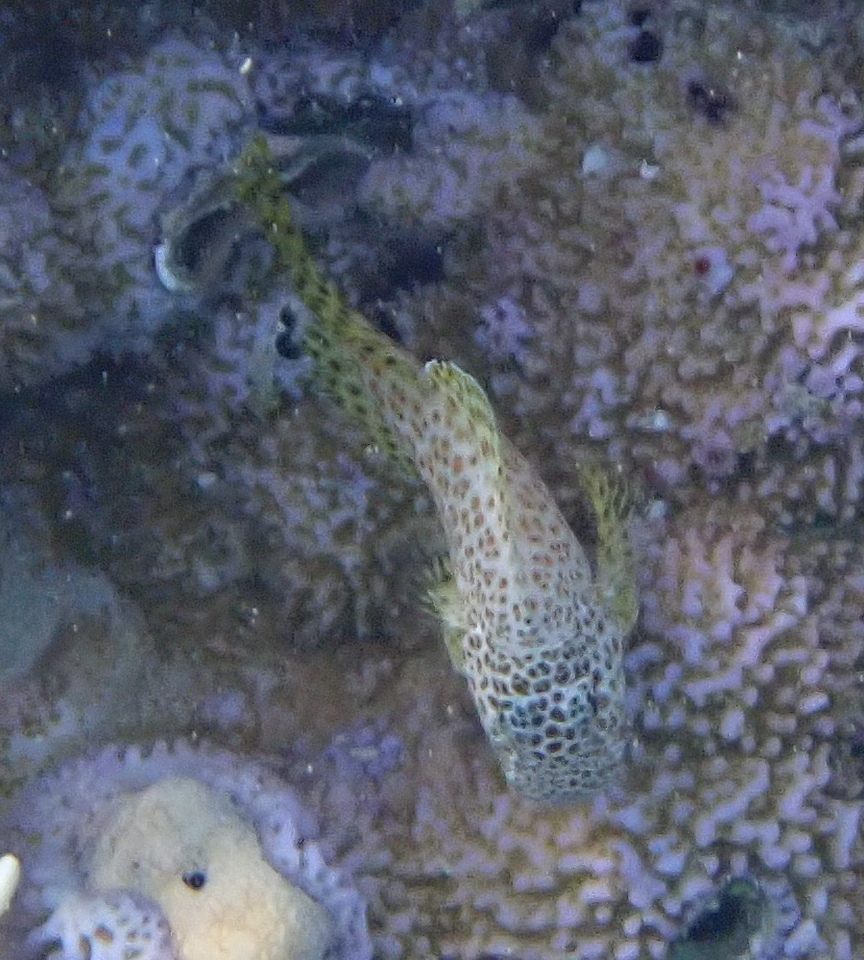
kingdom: Animalia
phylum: Chordata
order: Perciformes
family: Blenniidae
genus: Exallias
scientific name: Exallias brevis
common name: Leopard blenny
